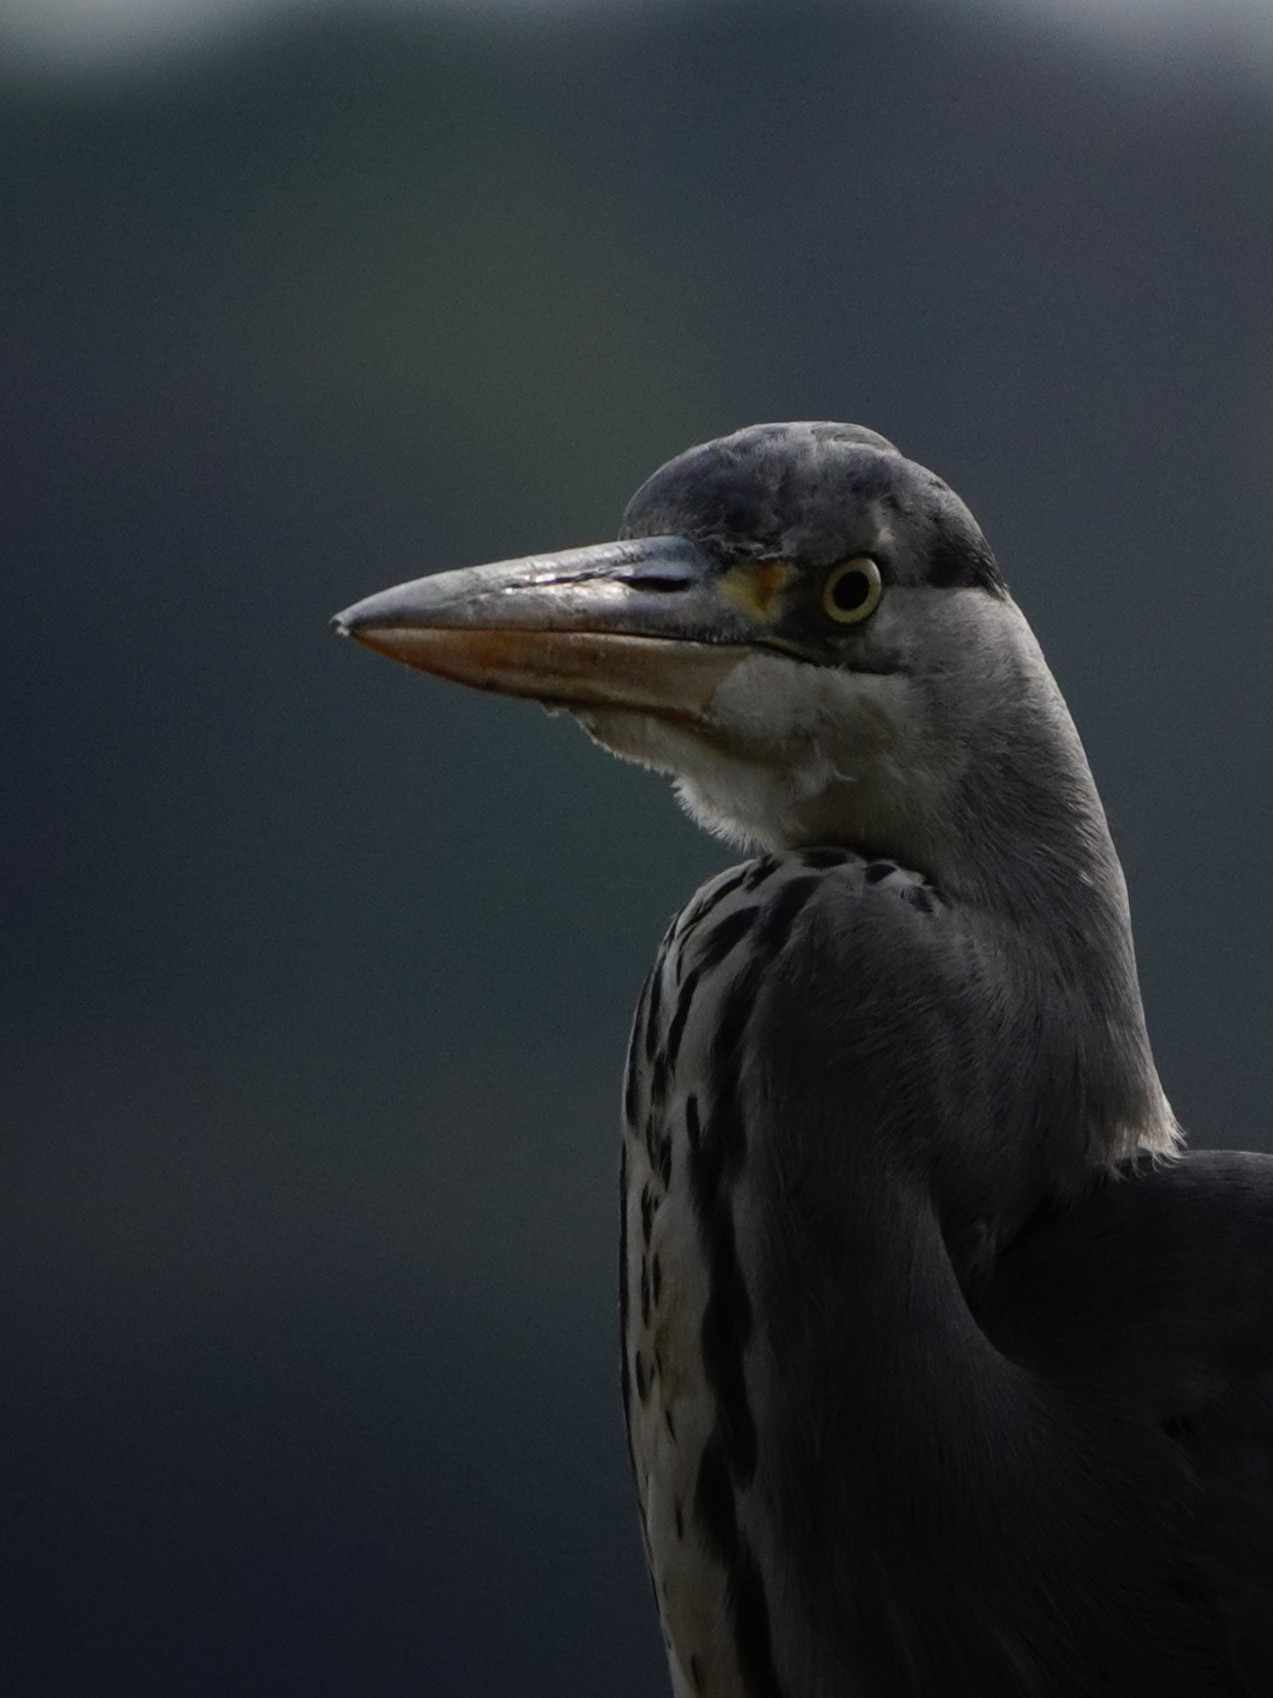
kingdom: Animalia
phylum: Chordata
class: Aves
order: Pelecaniformes
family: Ardeidae
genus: Ardea
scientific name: Ardea cinerea
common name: Grey heron
